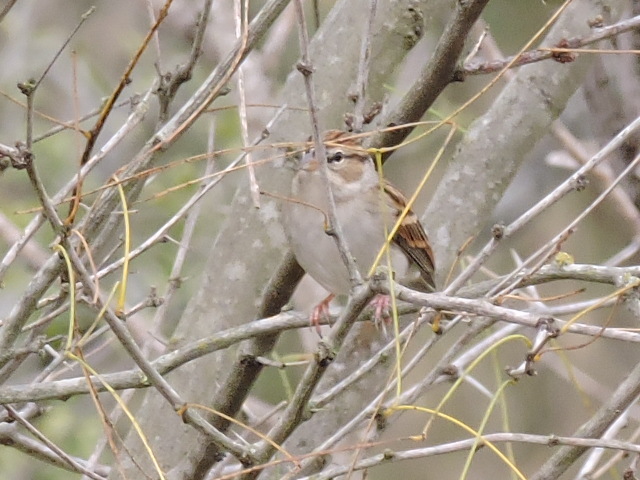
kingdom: Animalia
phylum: Chordata
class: Aves
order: Passeriformes
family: Passerellidae
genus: Spizella
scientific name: Spizella passerina
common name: Chipping sparrow
